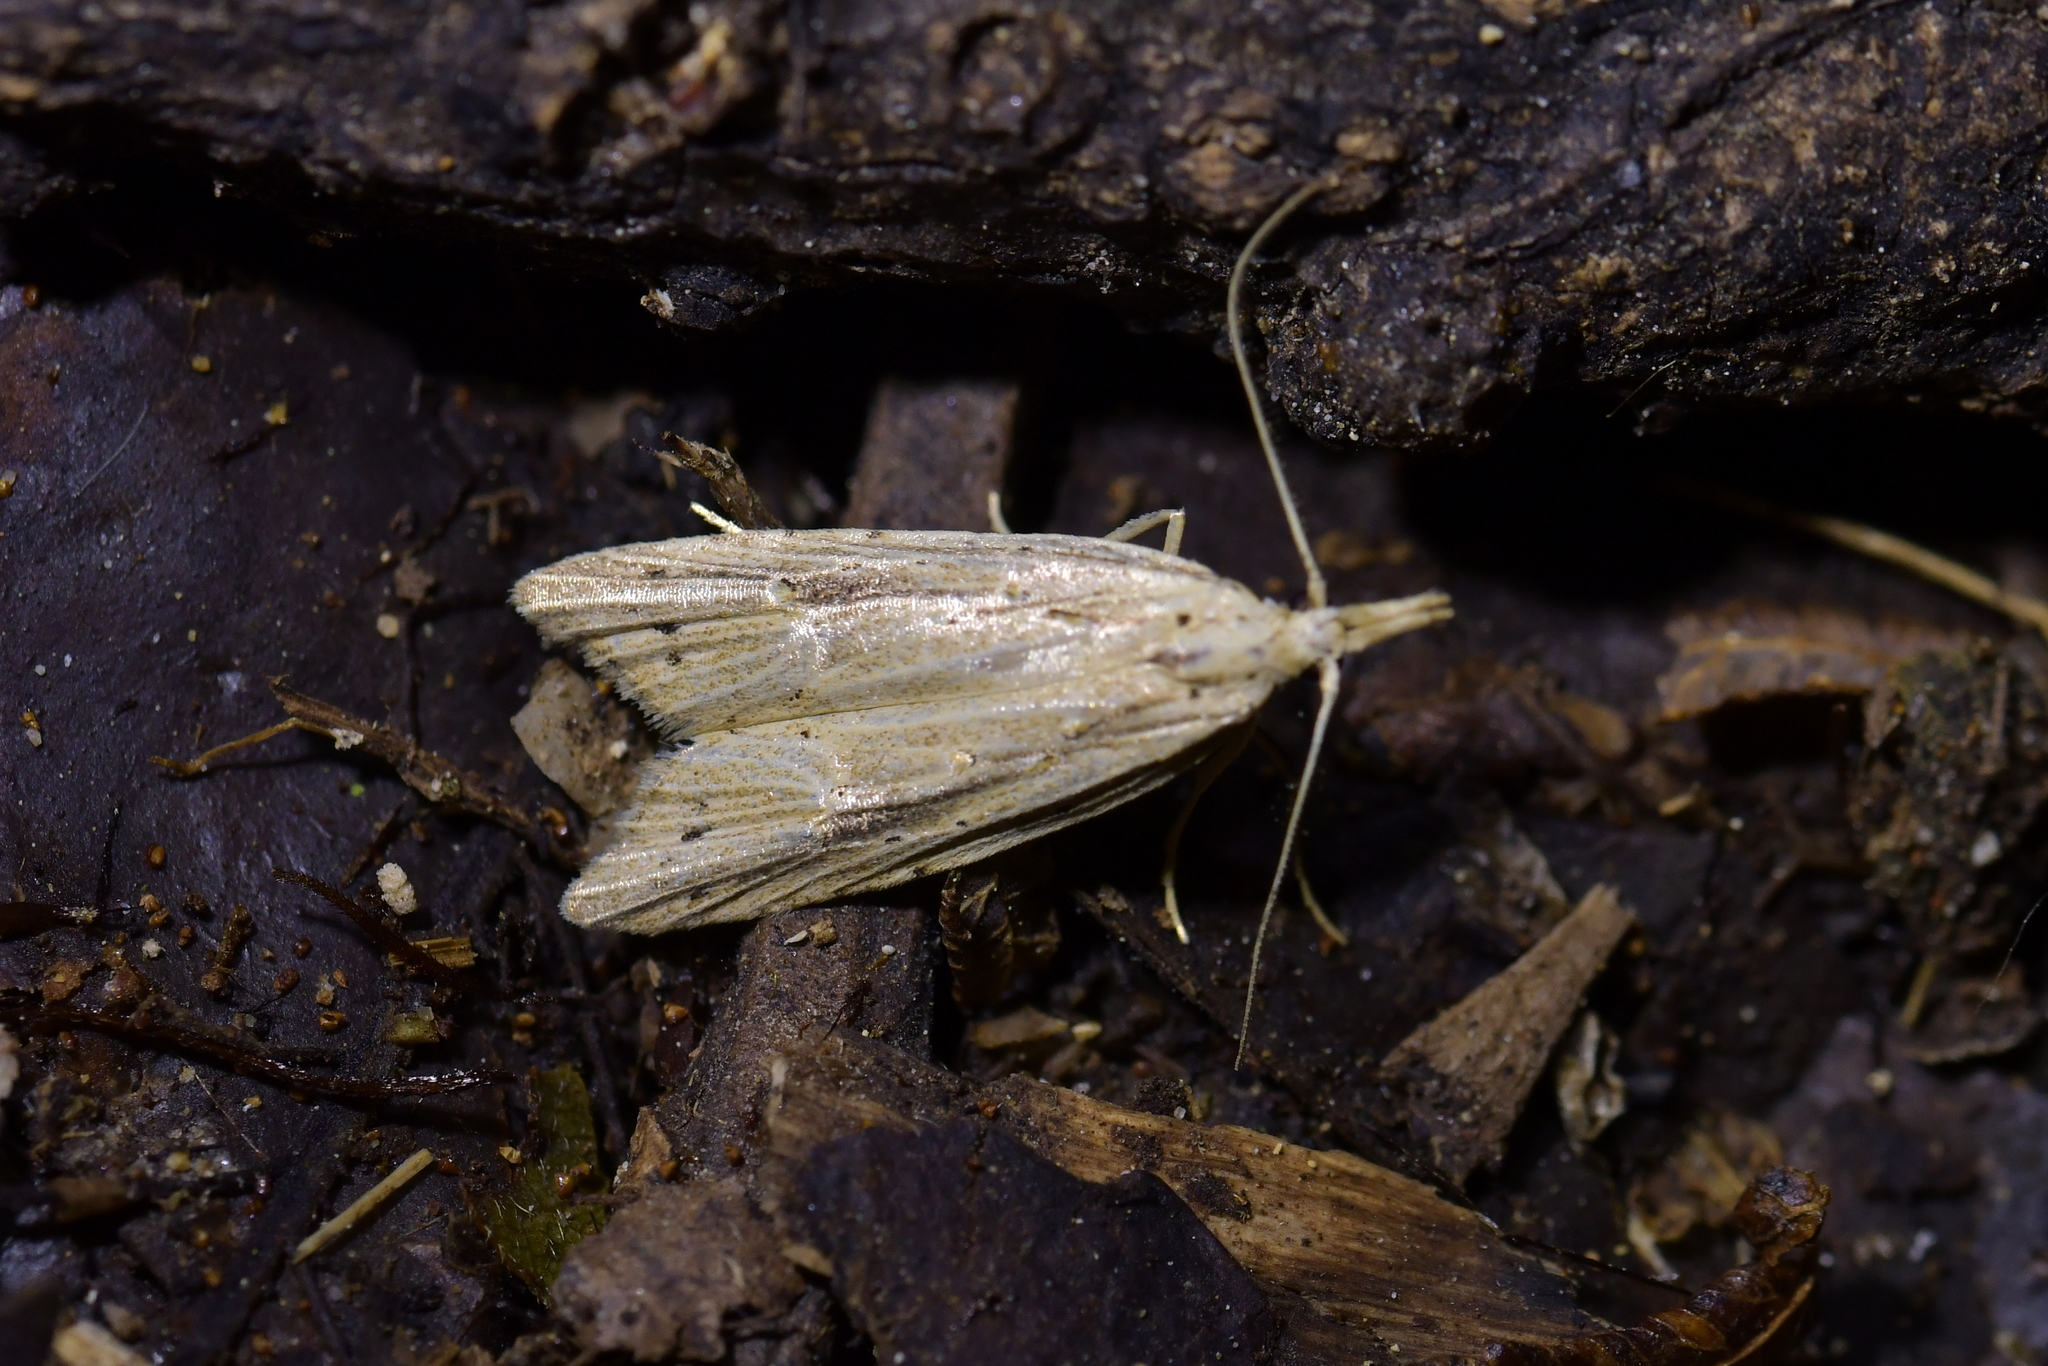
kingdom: Animalia
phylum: Arthropoda
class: Insecta
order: Lepidoptera
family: Carposinidae
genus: Carposina
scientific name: Carposina Heterocrossa exochana
